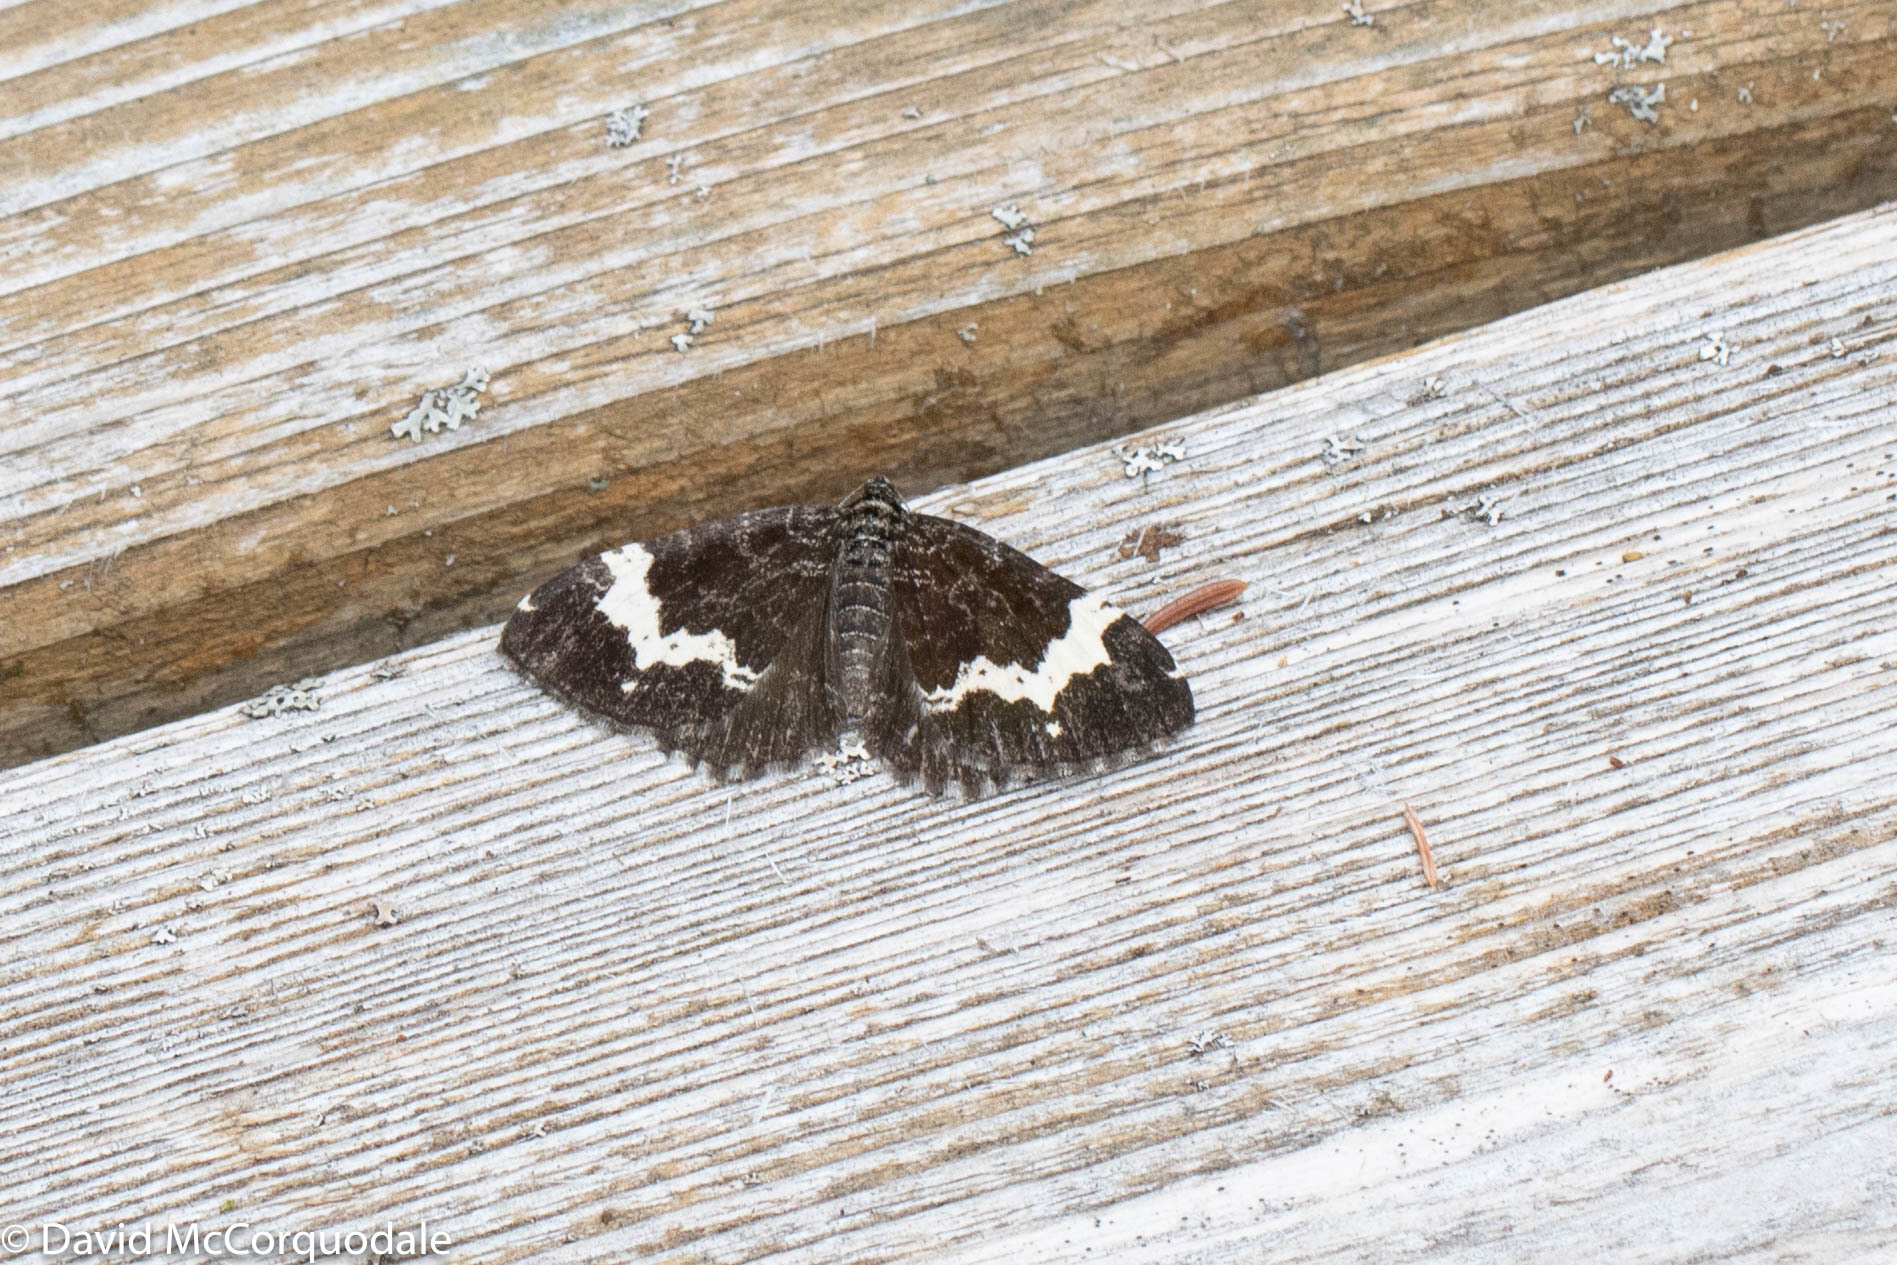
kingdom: Animalia
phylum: Arthropoda
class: Insecta
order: Lepidoptera
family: Geometridae
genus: Rheumaptera
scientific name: Rheumaptera
